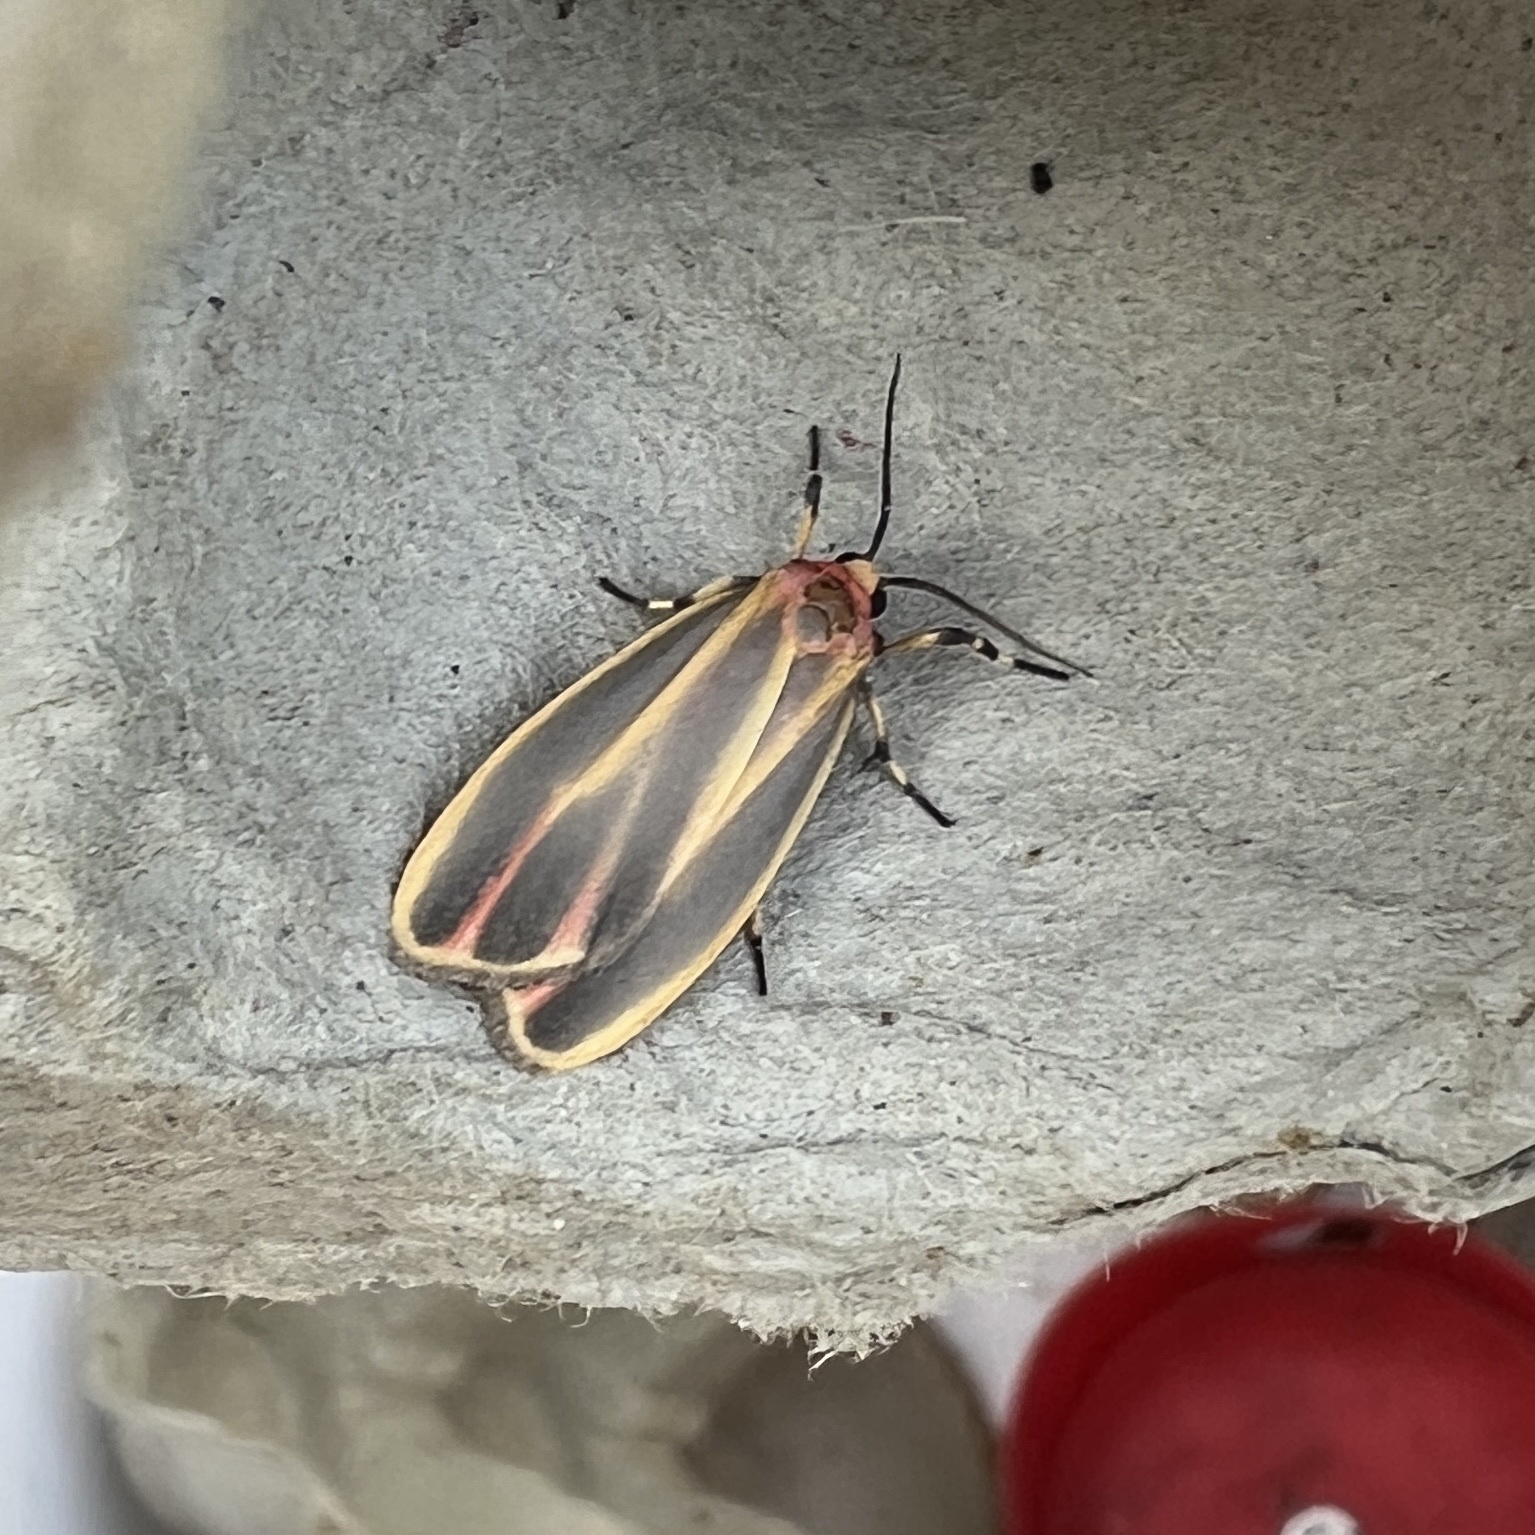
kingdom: Animalia
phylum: Arthropoda
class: Insecta
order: Lepidoptera
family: Erebidae
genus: Hypoprepia
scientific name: Hypoprepia fucosa
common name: Painted lichen moth
